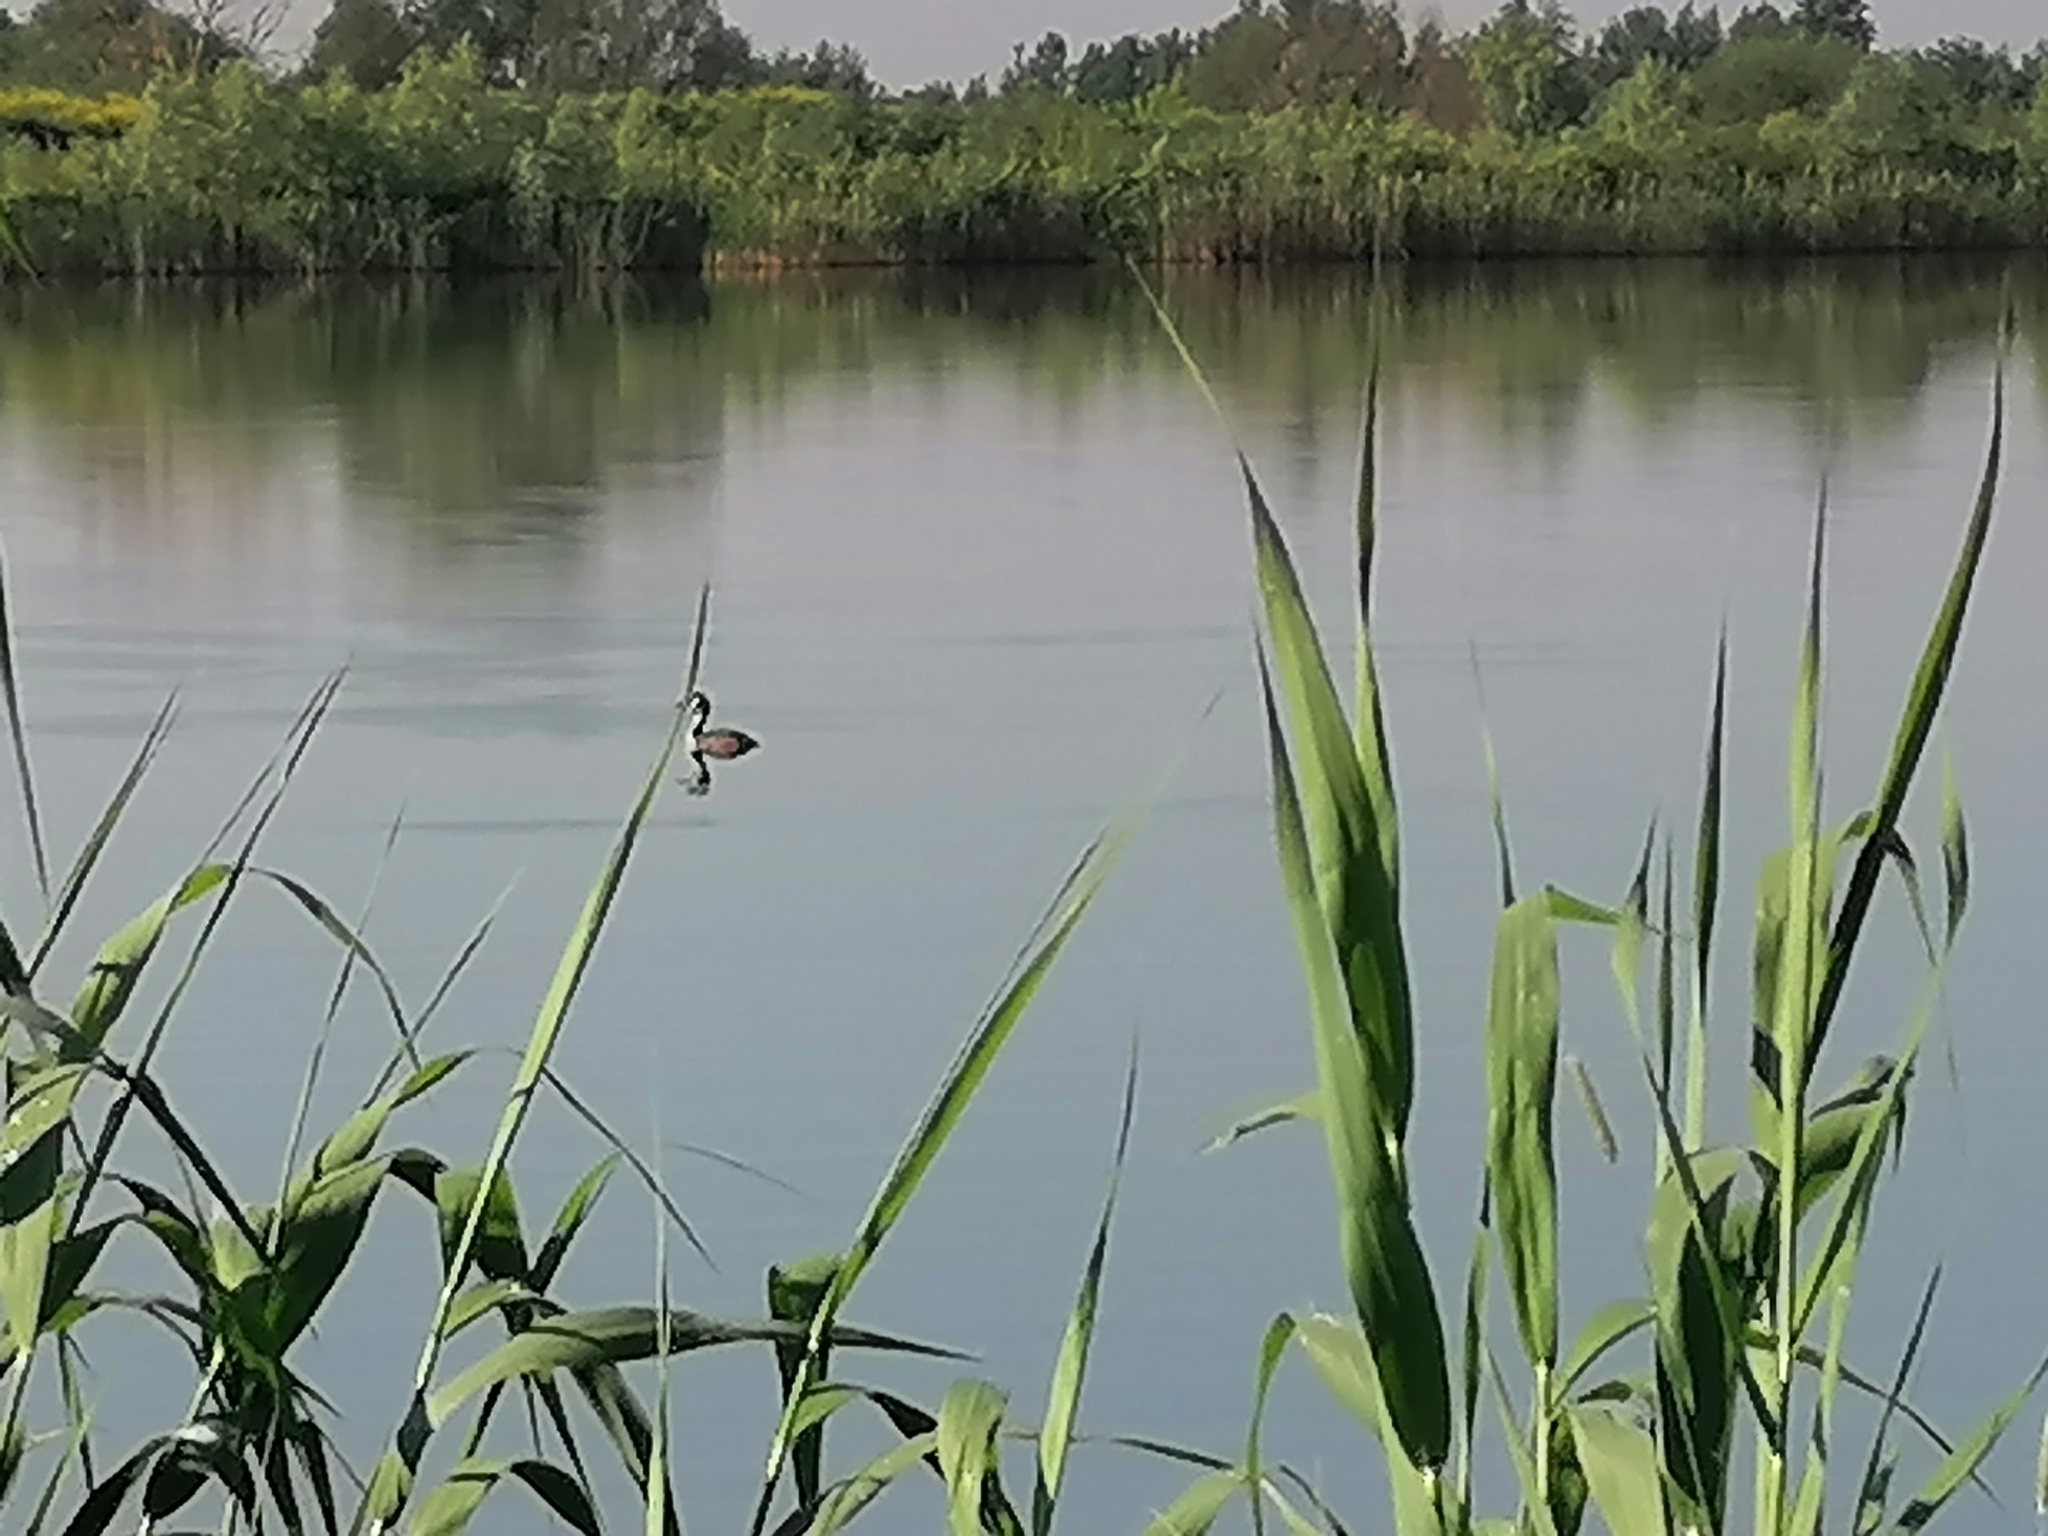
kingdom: Animalia
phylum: Chordata
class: Aves
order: Podicipediformes
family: Podicipedidae
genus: Podiceps
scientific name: Podiceps cristatus
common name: Great crested grebe
